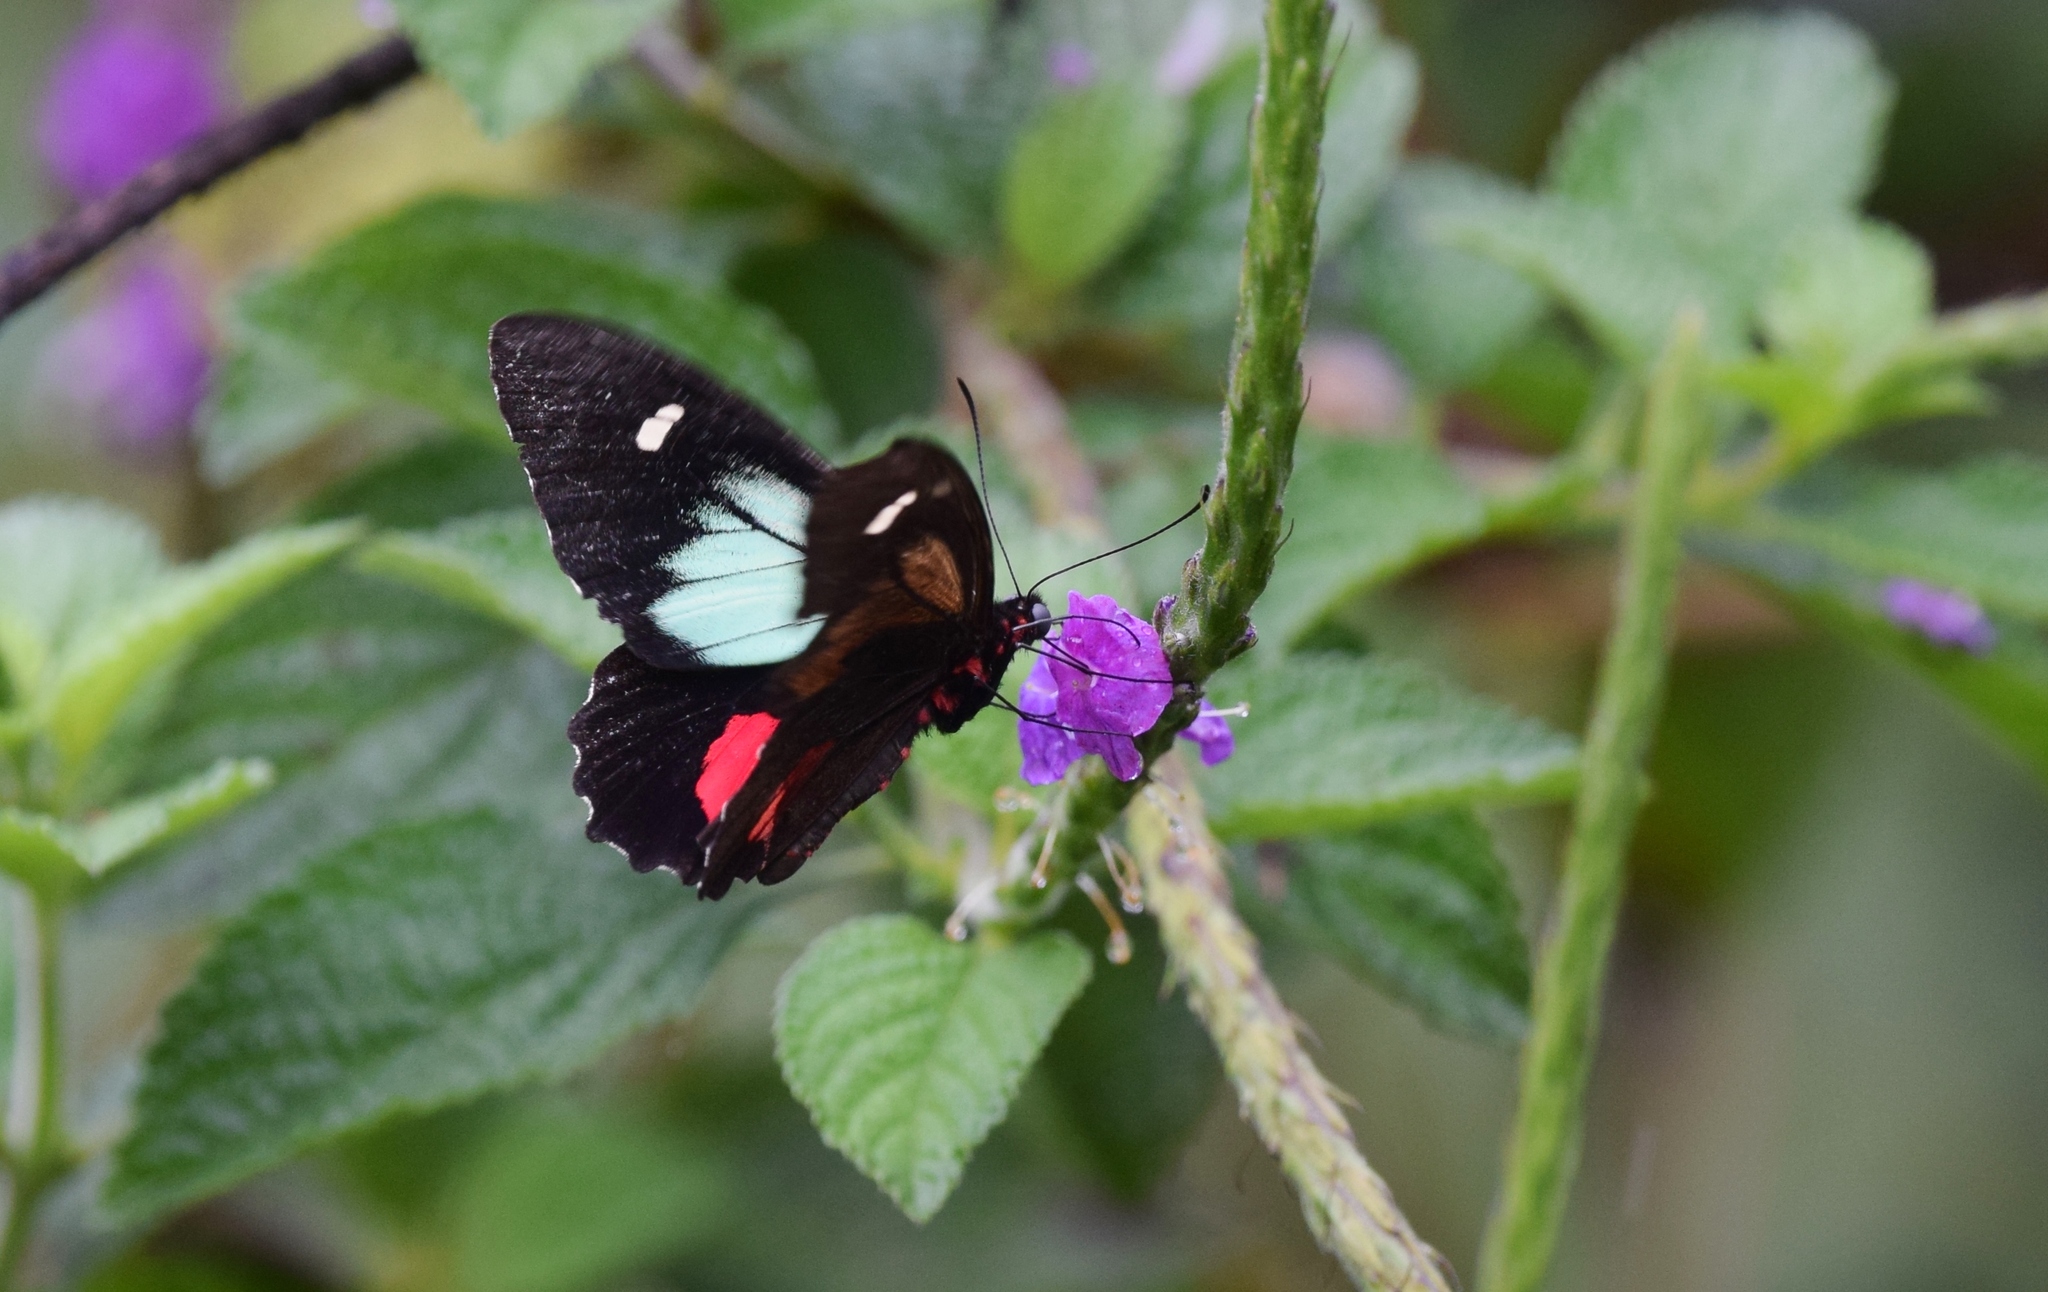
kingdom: Animalia
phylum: Arthropoda
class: Insecta
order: Lepidoptera
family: Papilionidae
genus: Parides
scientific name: Parides childrenae
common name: Green-celled cattleheart
